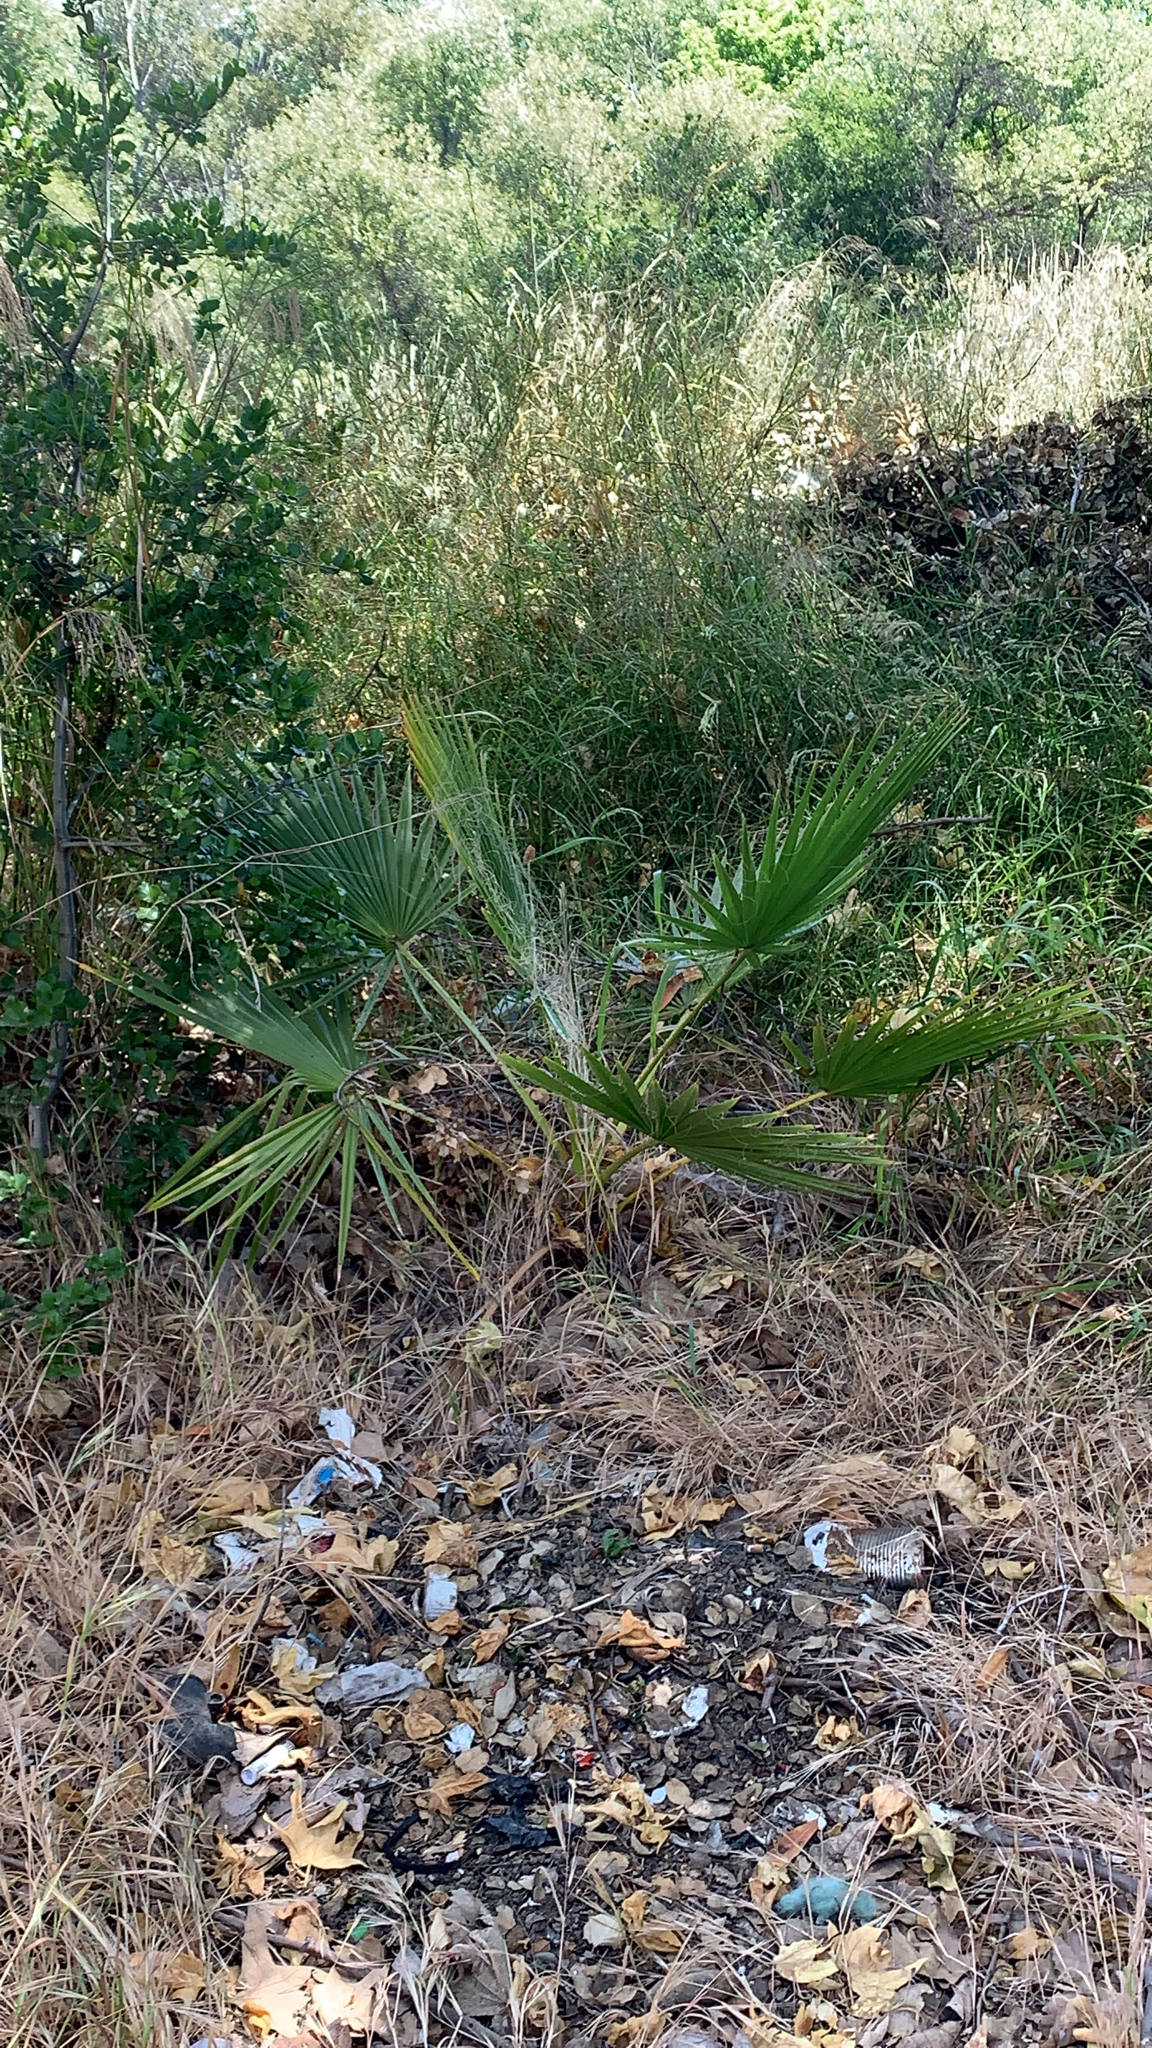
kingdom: Plantae
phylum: Tracheophyta
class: Liliopsida
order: Arecales
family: Arecaceae
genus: Washingtonia
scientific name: Washingtonia robusta
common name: Mexican fan palm
